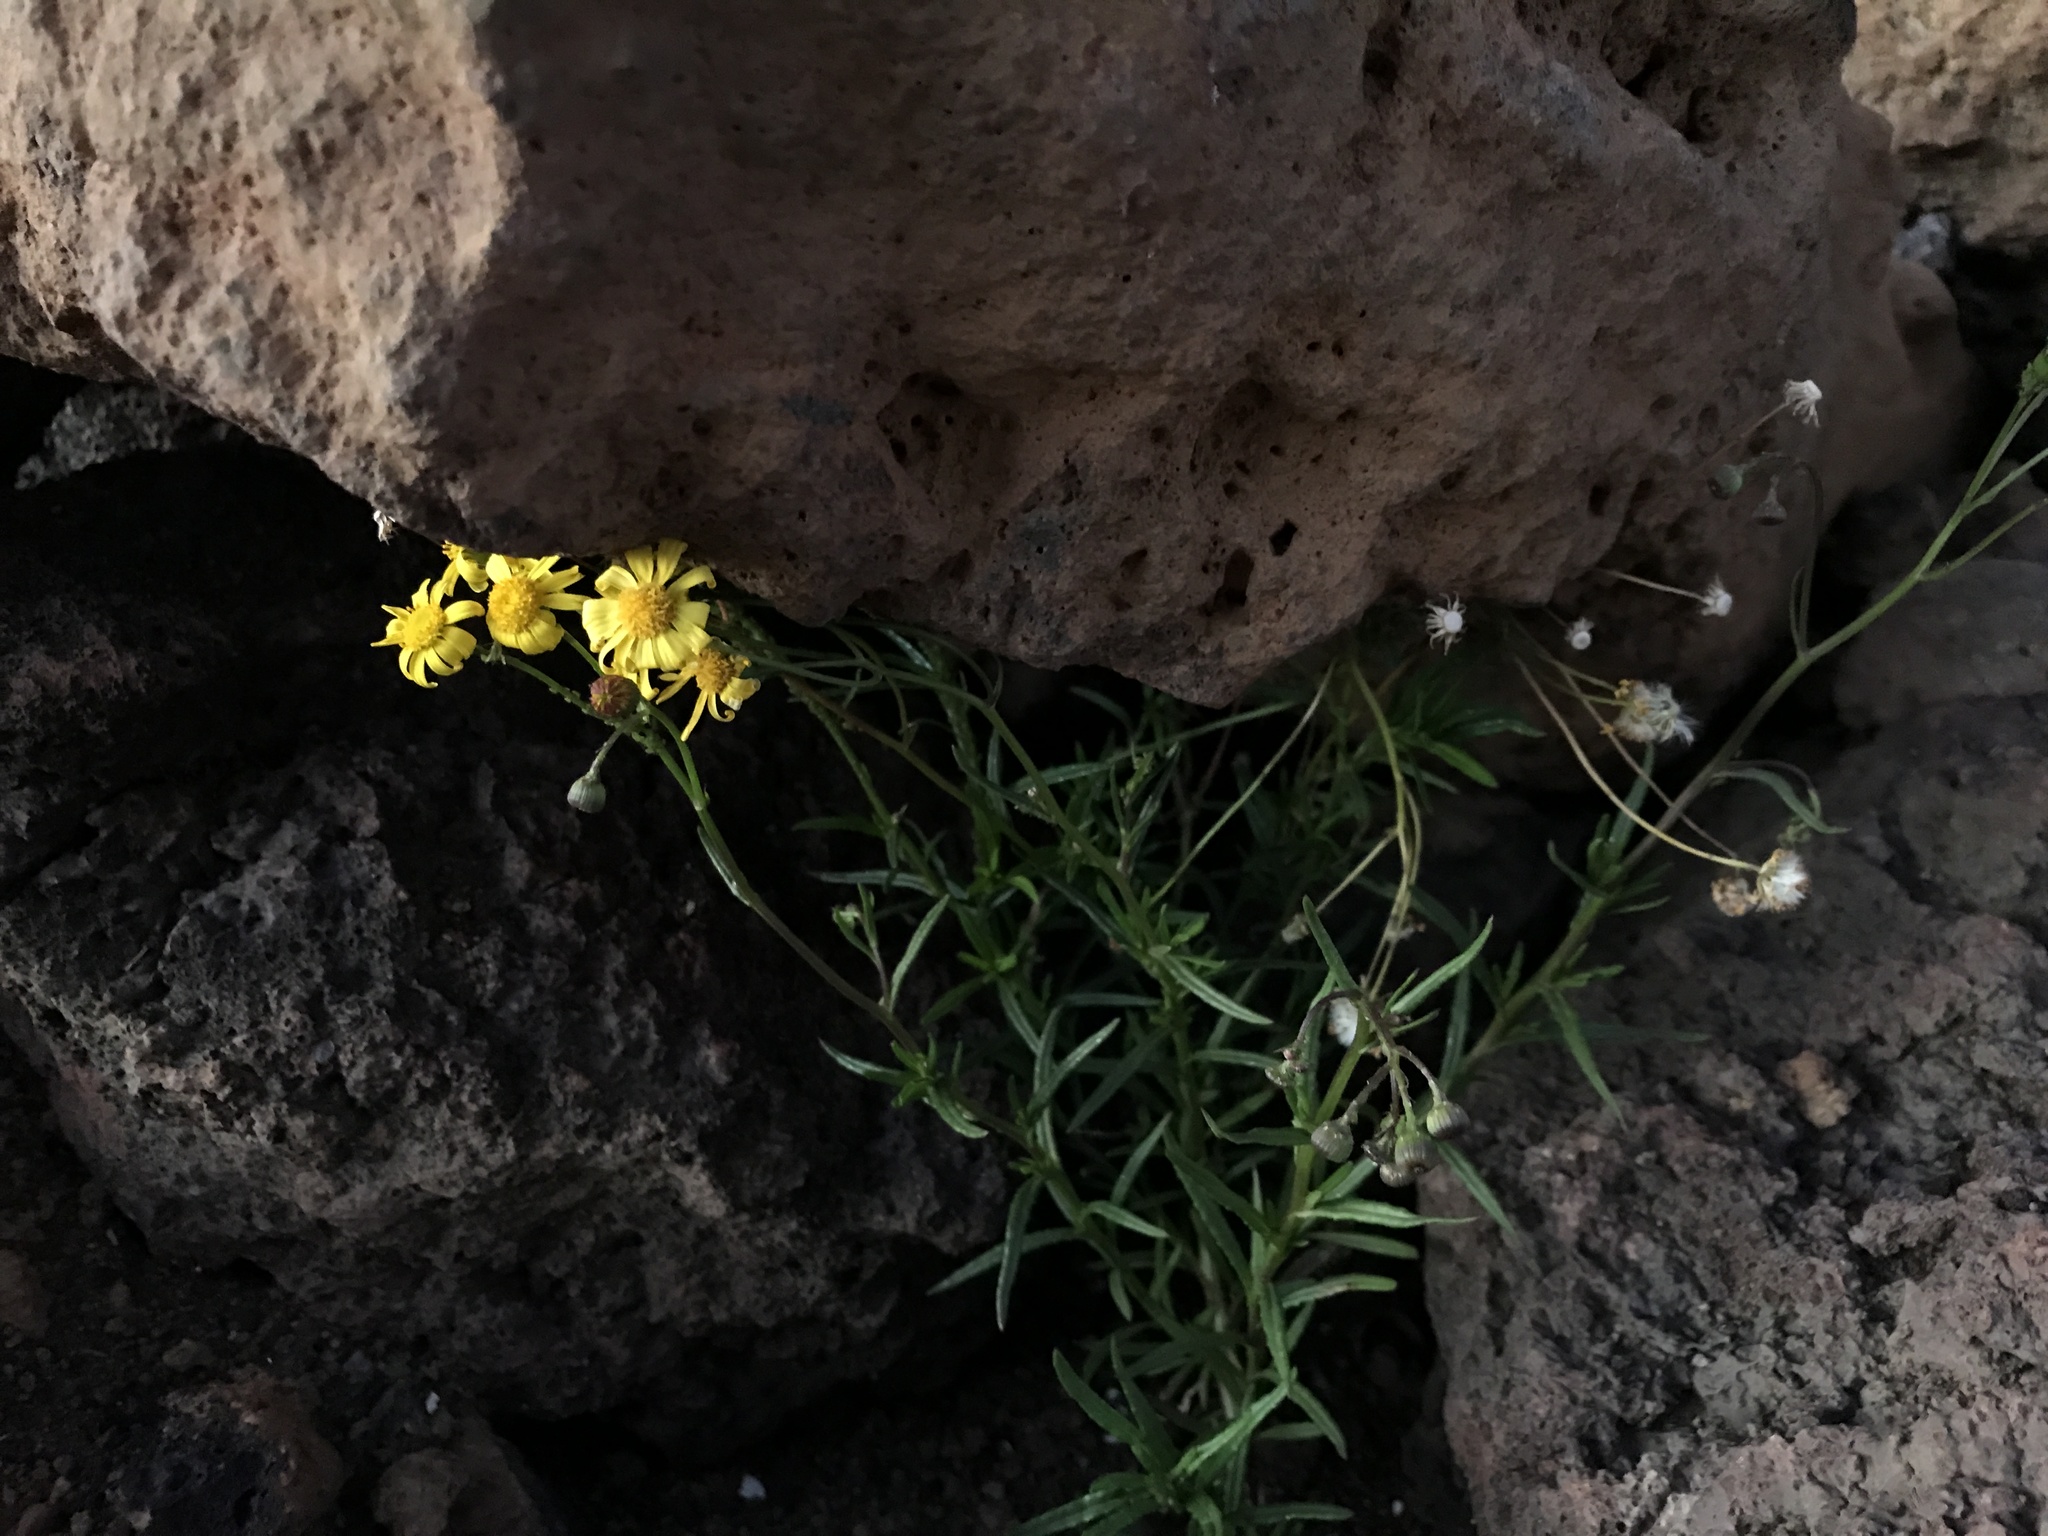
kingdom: Plantae
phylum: Tracheophyta
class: Magnoliopsida
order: Asterales
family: Asteraceae
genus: Senecio
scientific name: Senecio madagascariensis
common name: Madagascar ragwort
